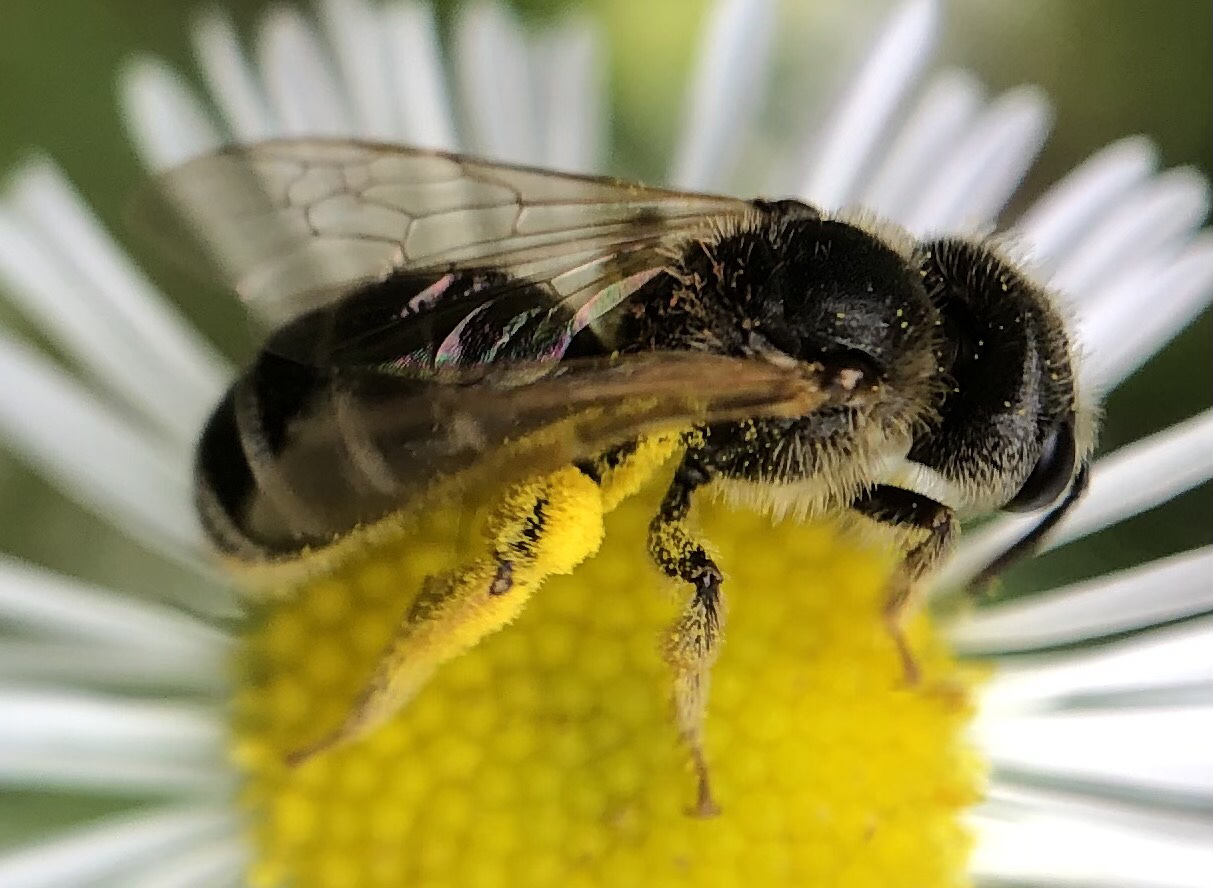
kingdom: Animalia
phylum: Arthropoda
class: Insecta
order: Hymenoptera
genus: Odontalictus
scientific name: Odontalictus
